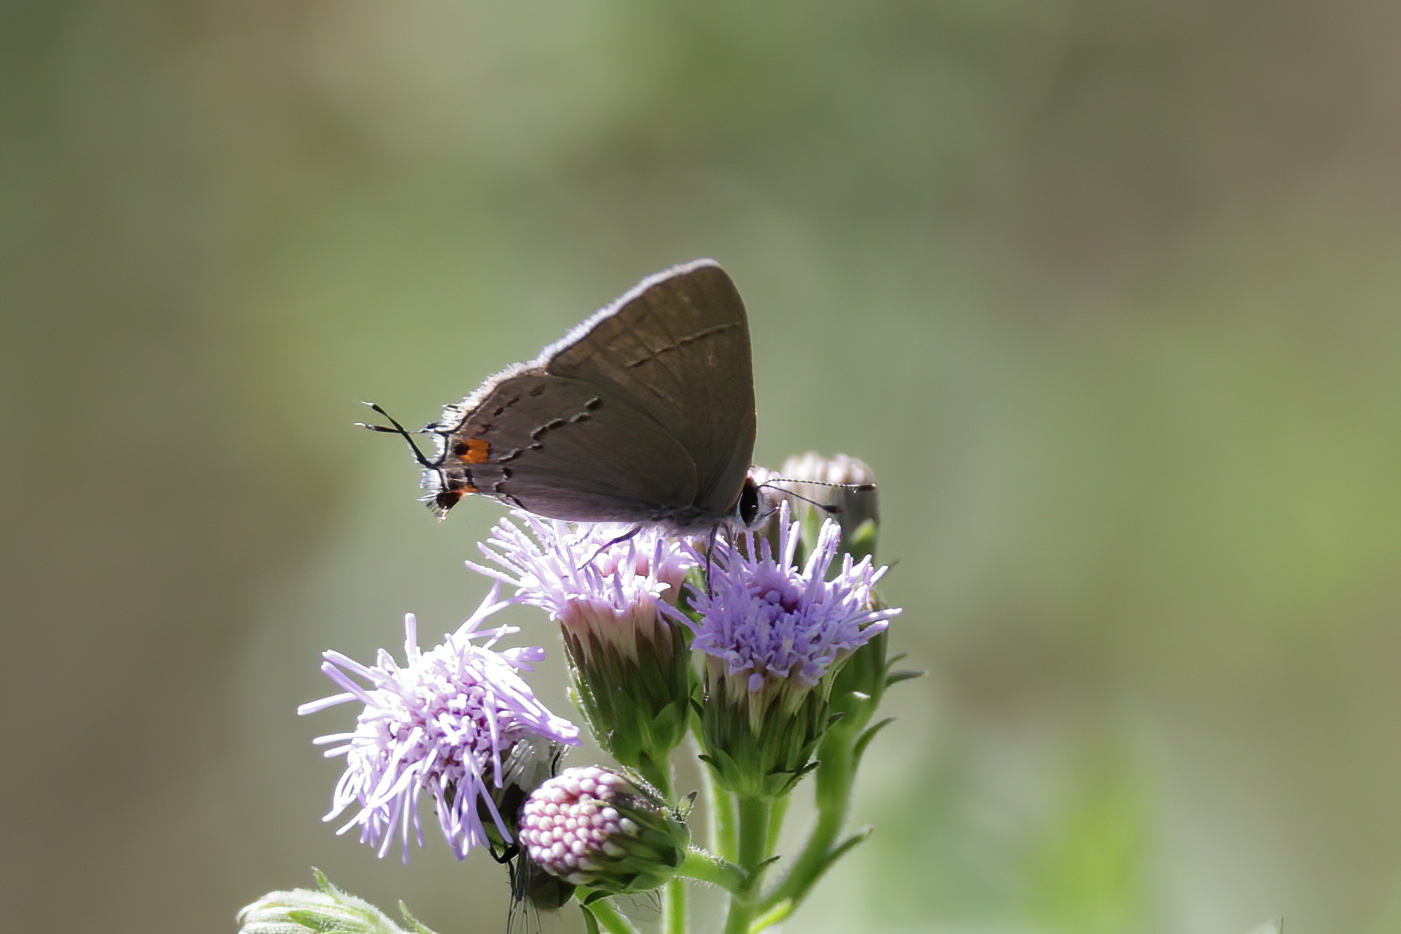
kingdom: Animalia
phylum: Arthropoda
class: Insecta
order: Lepidoptera
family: Lycaenidae
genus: Strymon
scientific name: Strymon melinus
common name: Gray hairstreak
